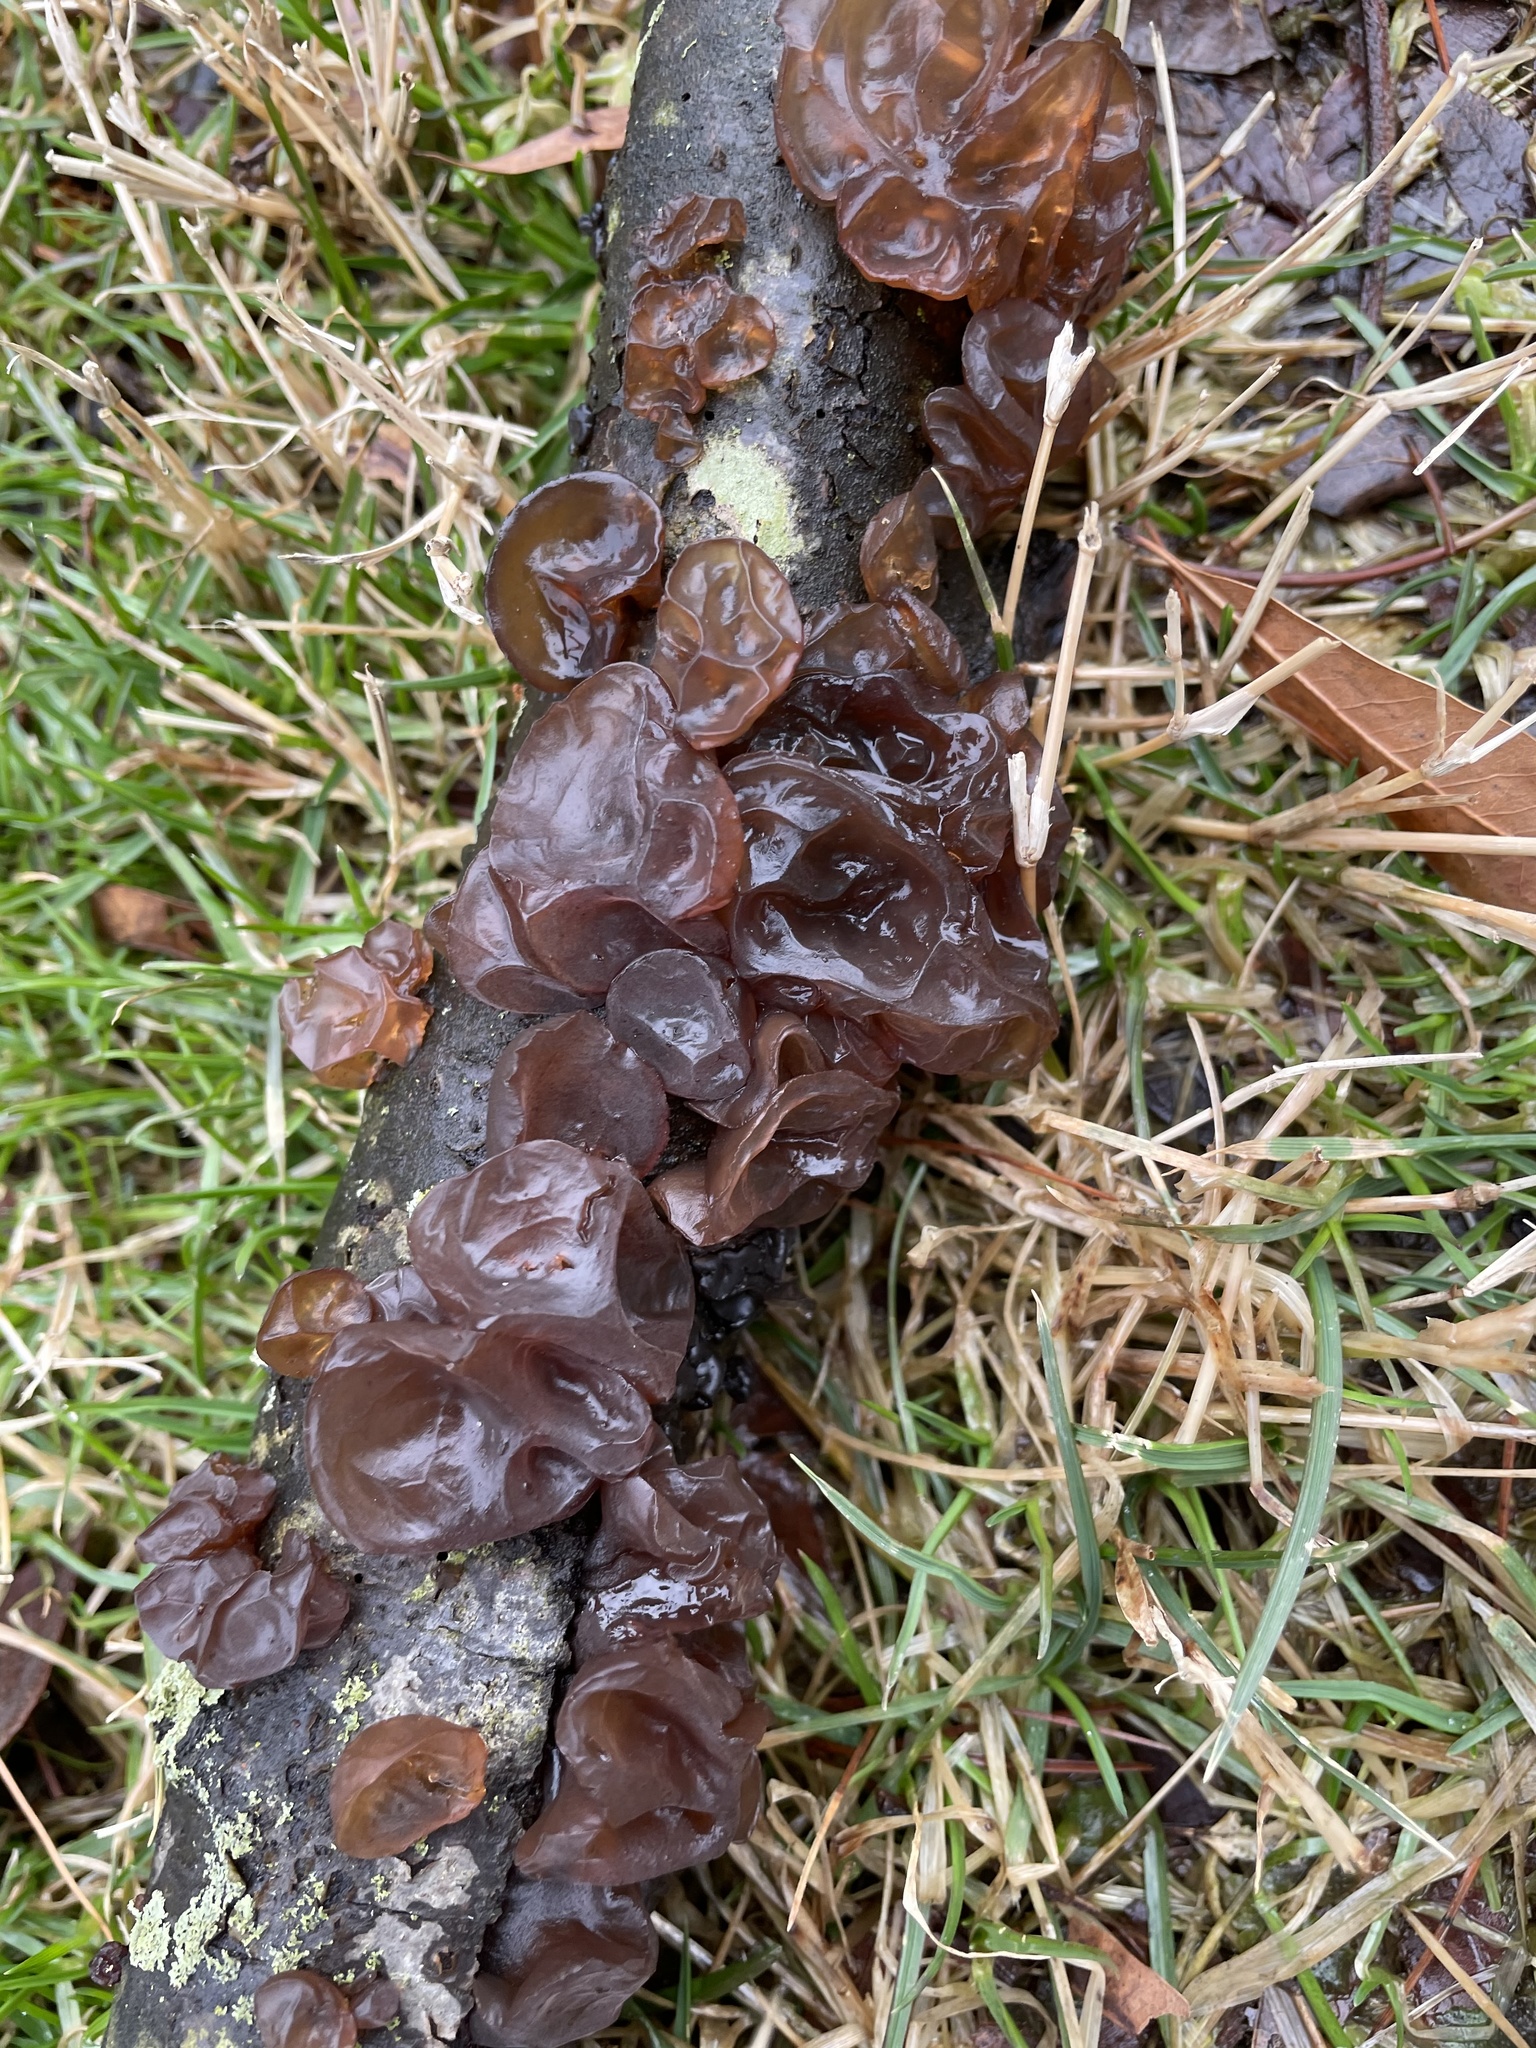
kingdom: Fungi
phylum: Basidiomycota
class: Agaricomycetes
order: Auriculariales
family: Auriculariaceae
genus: Exidia
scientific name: Exidia
